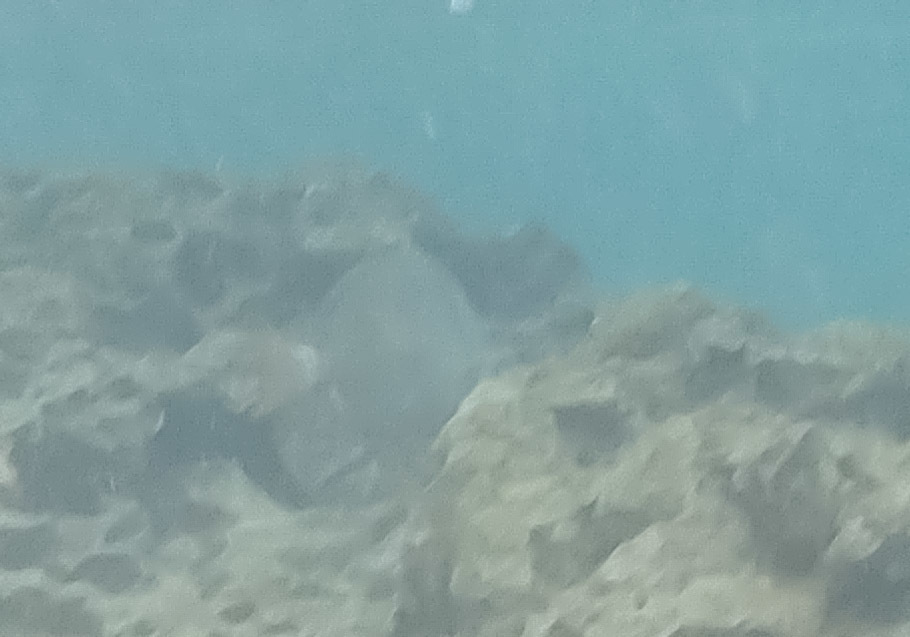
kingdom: Animalia
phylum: Chordata
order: Perciformes
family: Acanthuridae
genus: Acanthurus
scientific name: Acanthurus leucopareius
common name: Head-band surgeonfish
